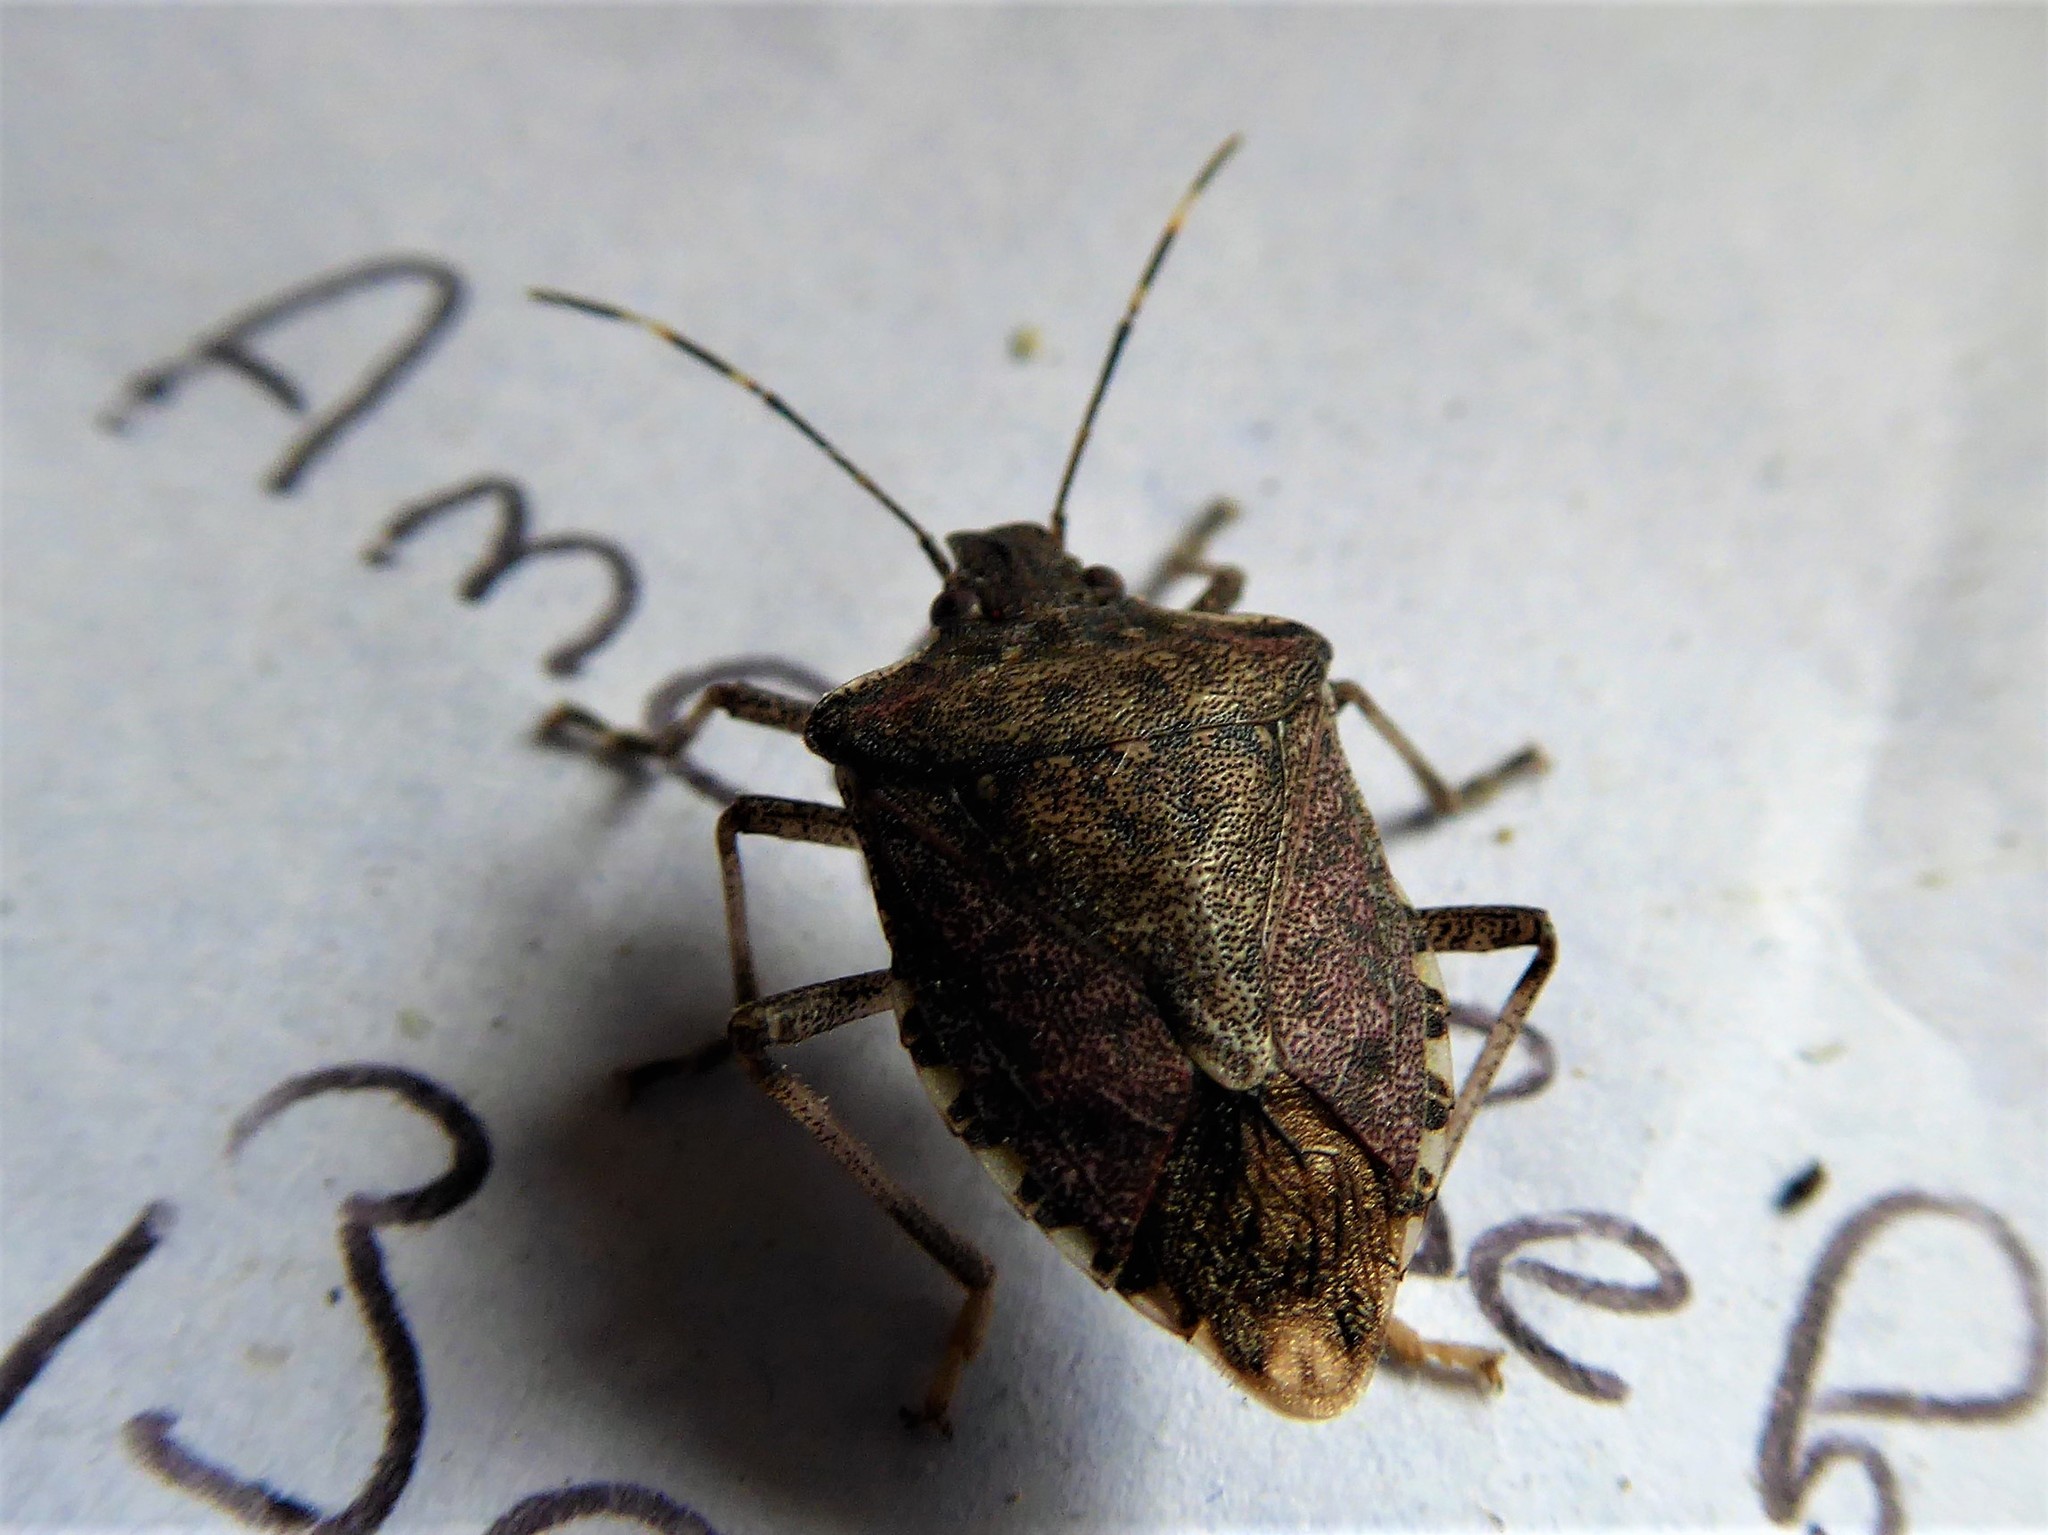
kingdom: Animalia
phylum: Arthropoda
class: Insecta
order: Hemiptera
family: Pentatomidae
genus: Halyomorpha
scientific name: Halyomorpha halys
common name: Brown marmorated stink bug
